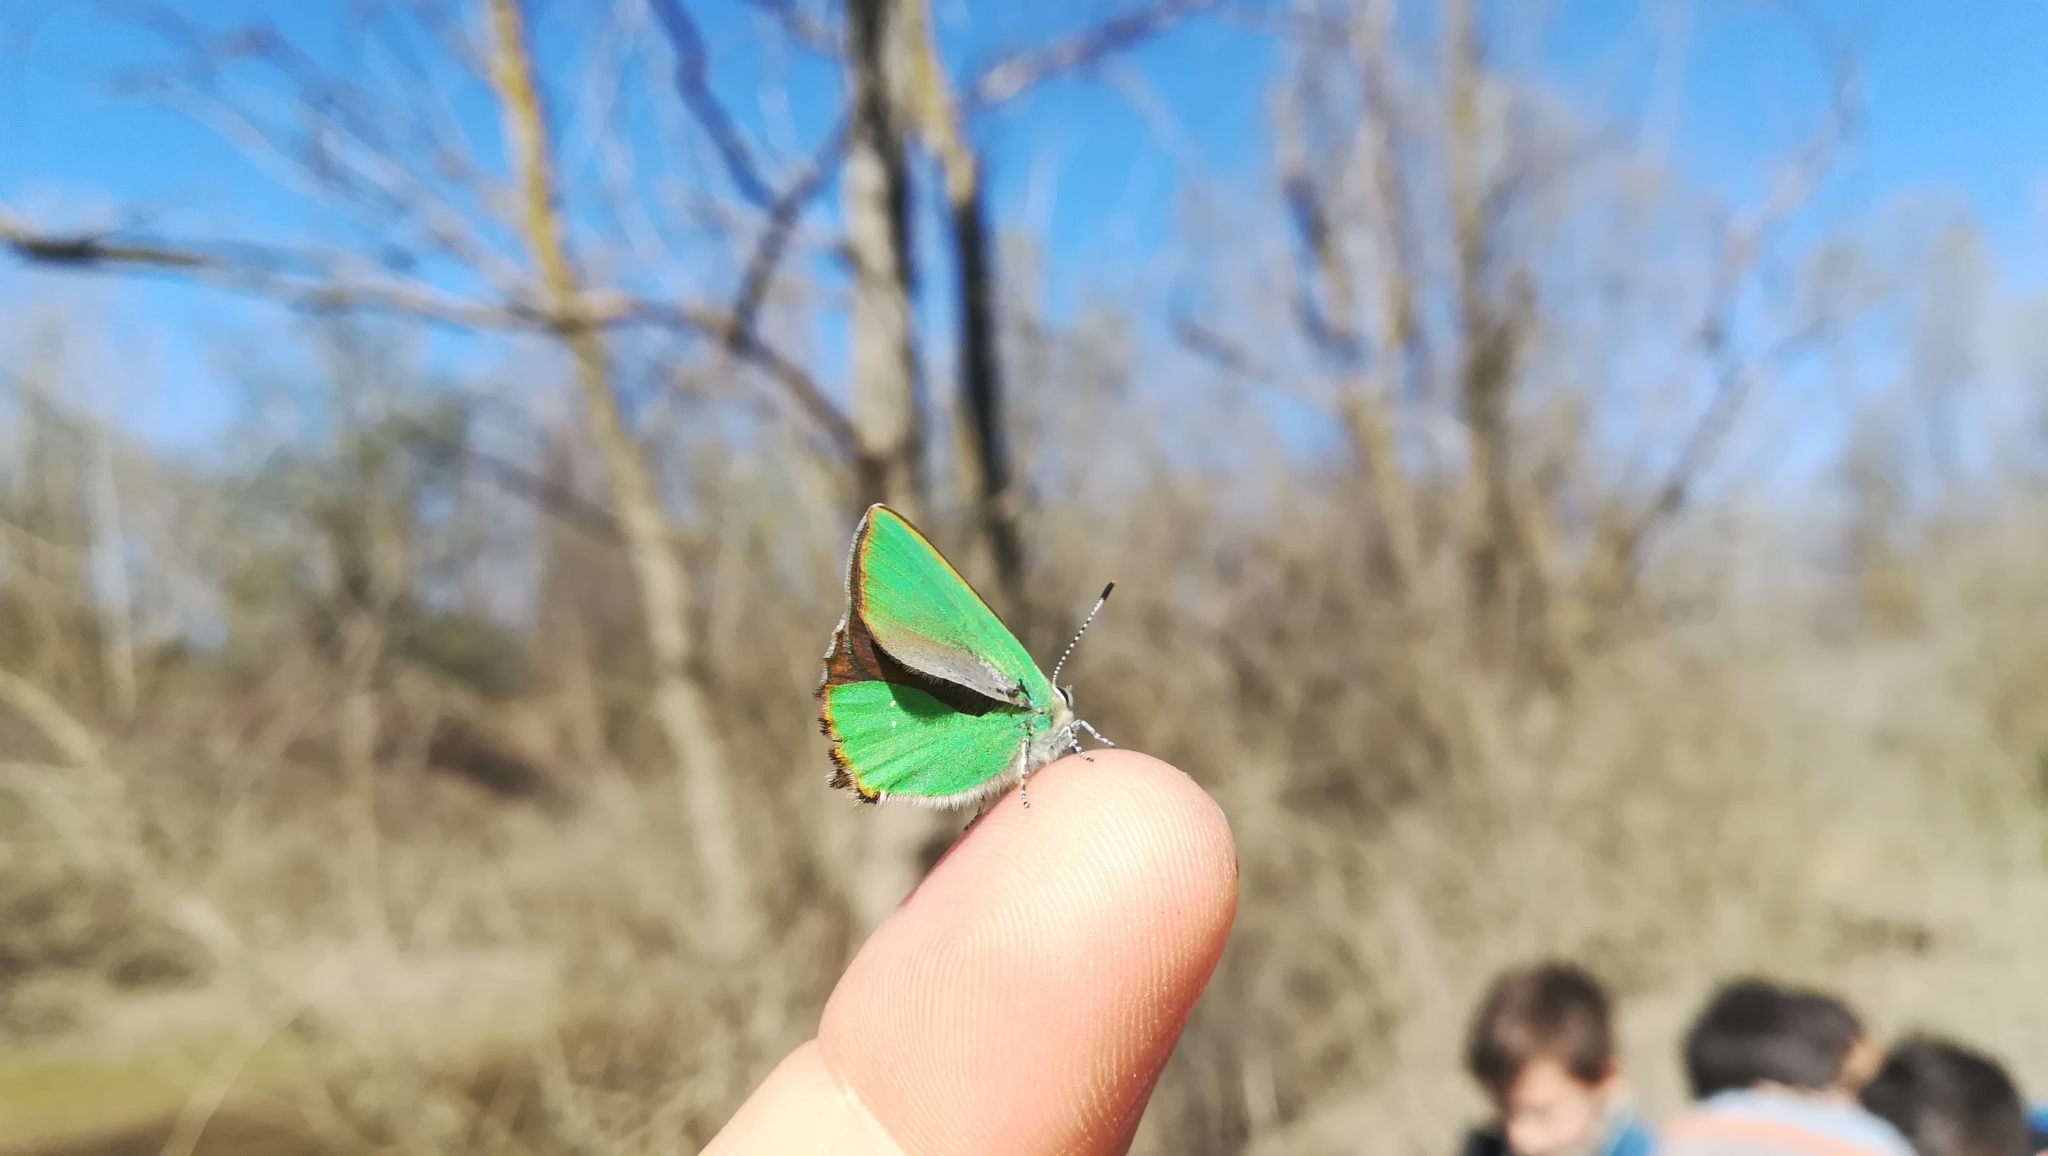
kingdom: Animalia
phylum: Arthropoda
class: Insecta
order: Lepidoptera
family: Lycaenidae
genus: Callophrys
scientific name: Callophrys rubi
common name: Green hairstreak
